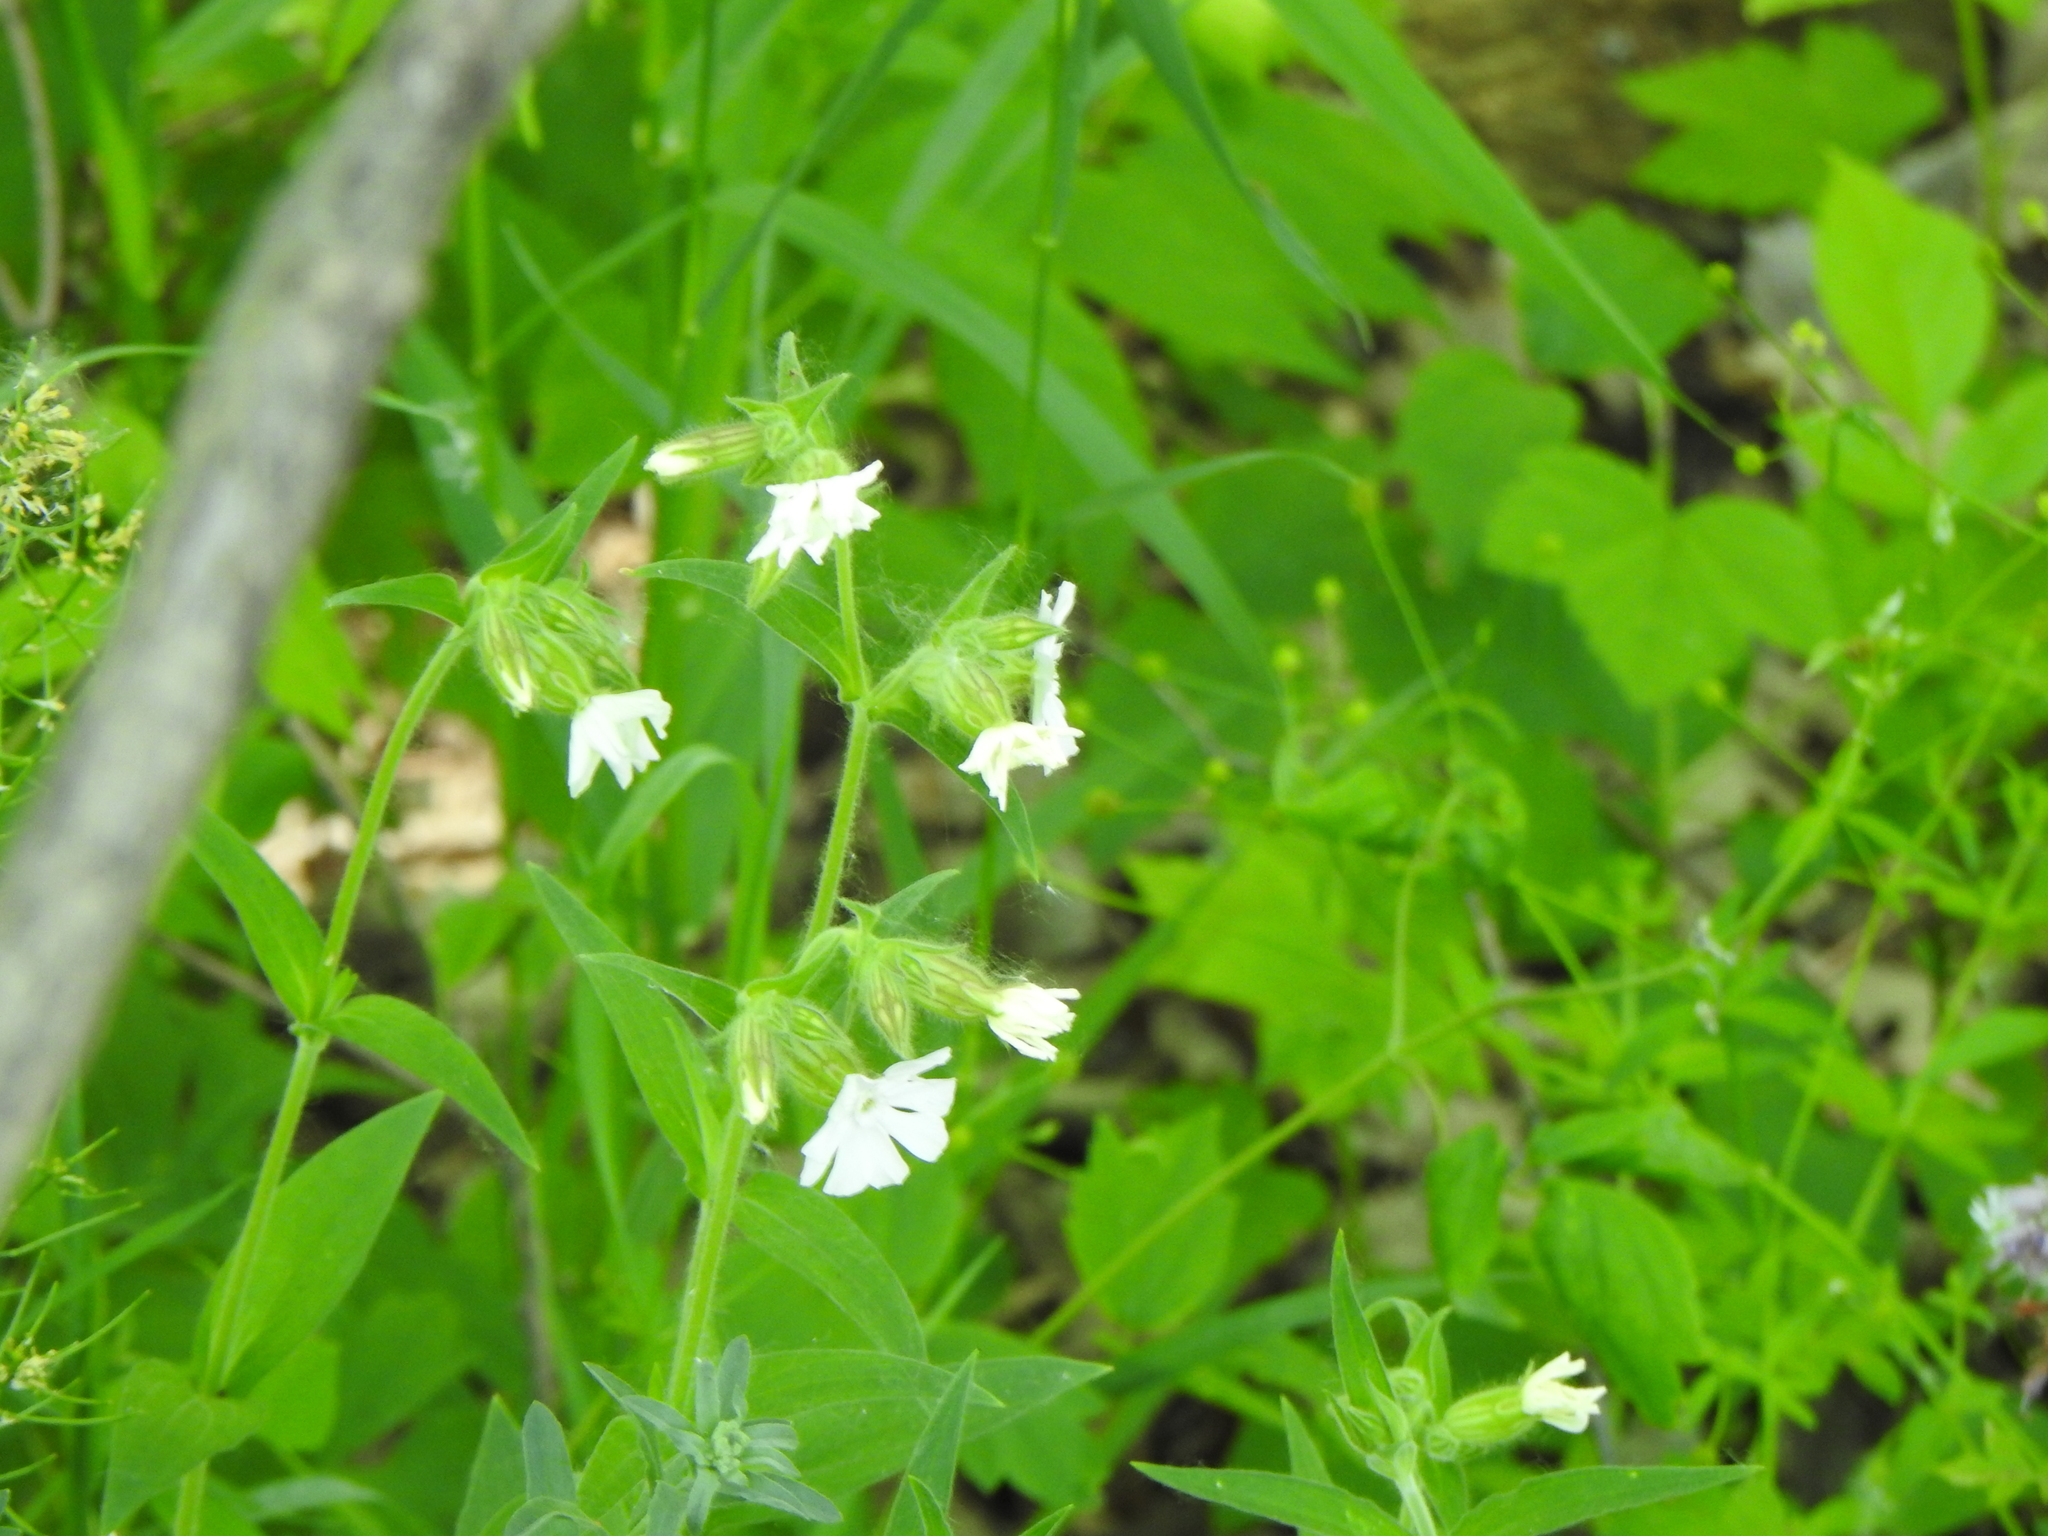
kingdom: Plantae
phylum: Tracheophyta
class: Magnoliopsida
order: Caryophyllales
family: Caryophyllaceae
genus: Silene
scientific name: Silene latifolia
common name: White campion
